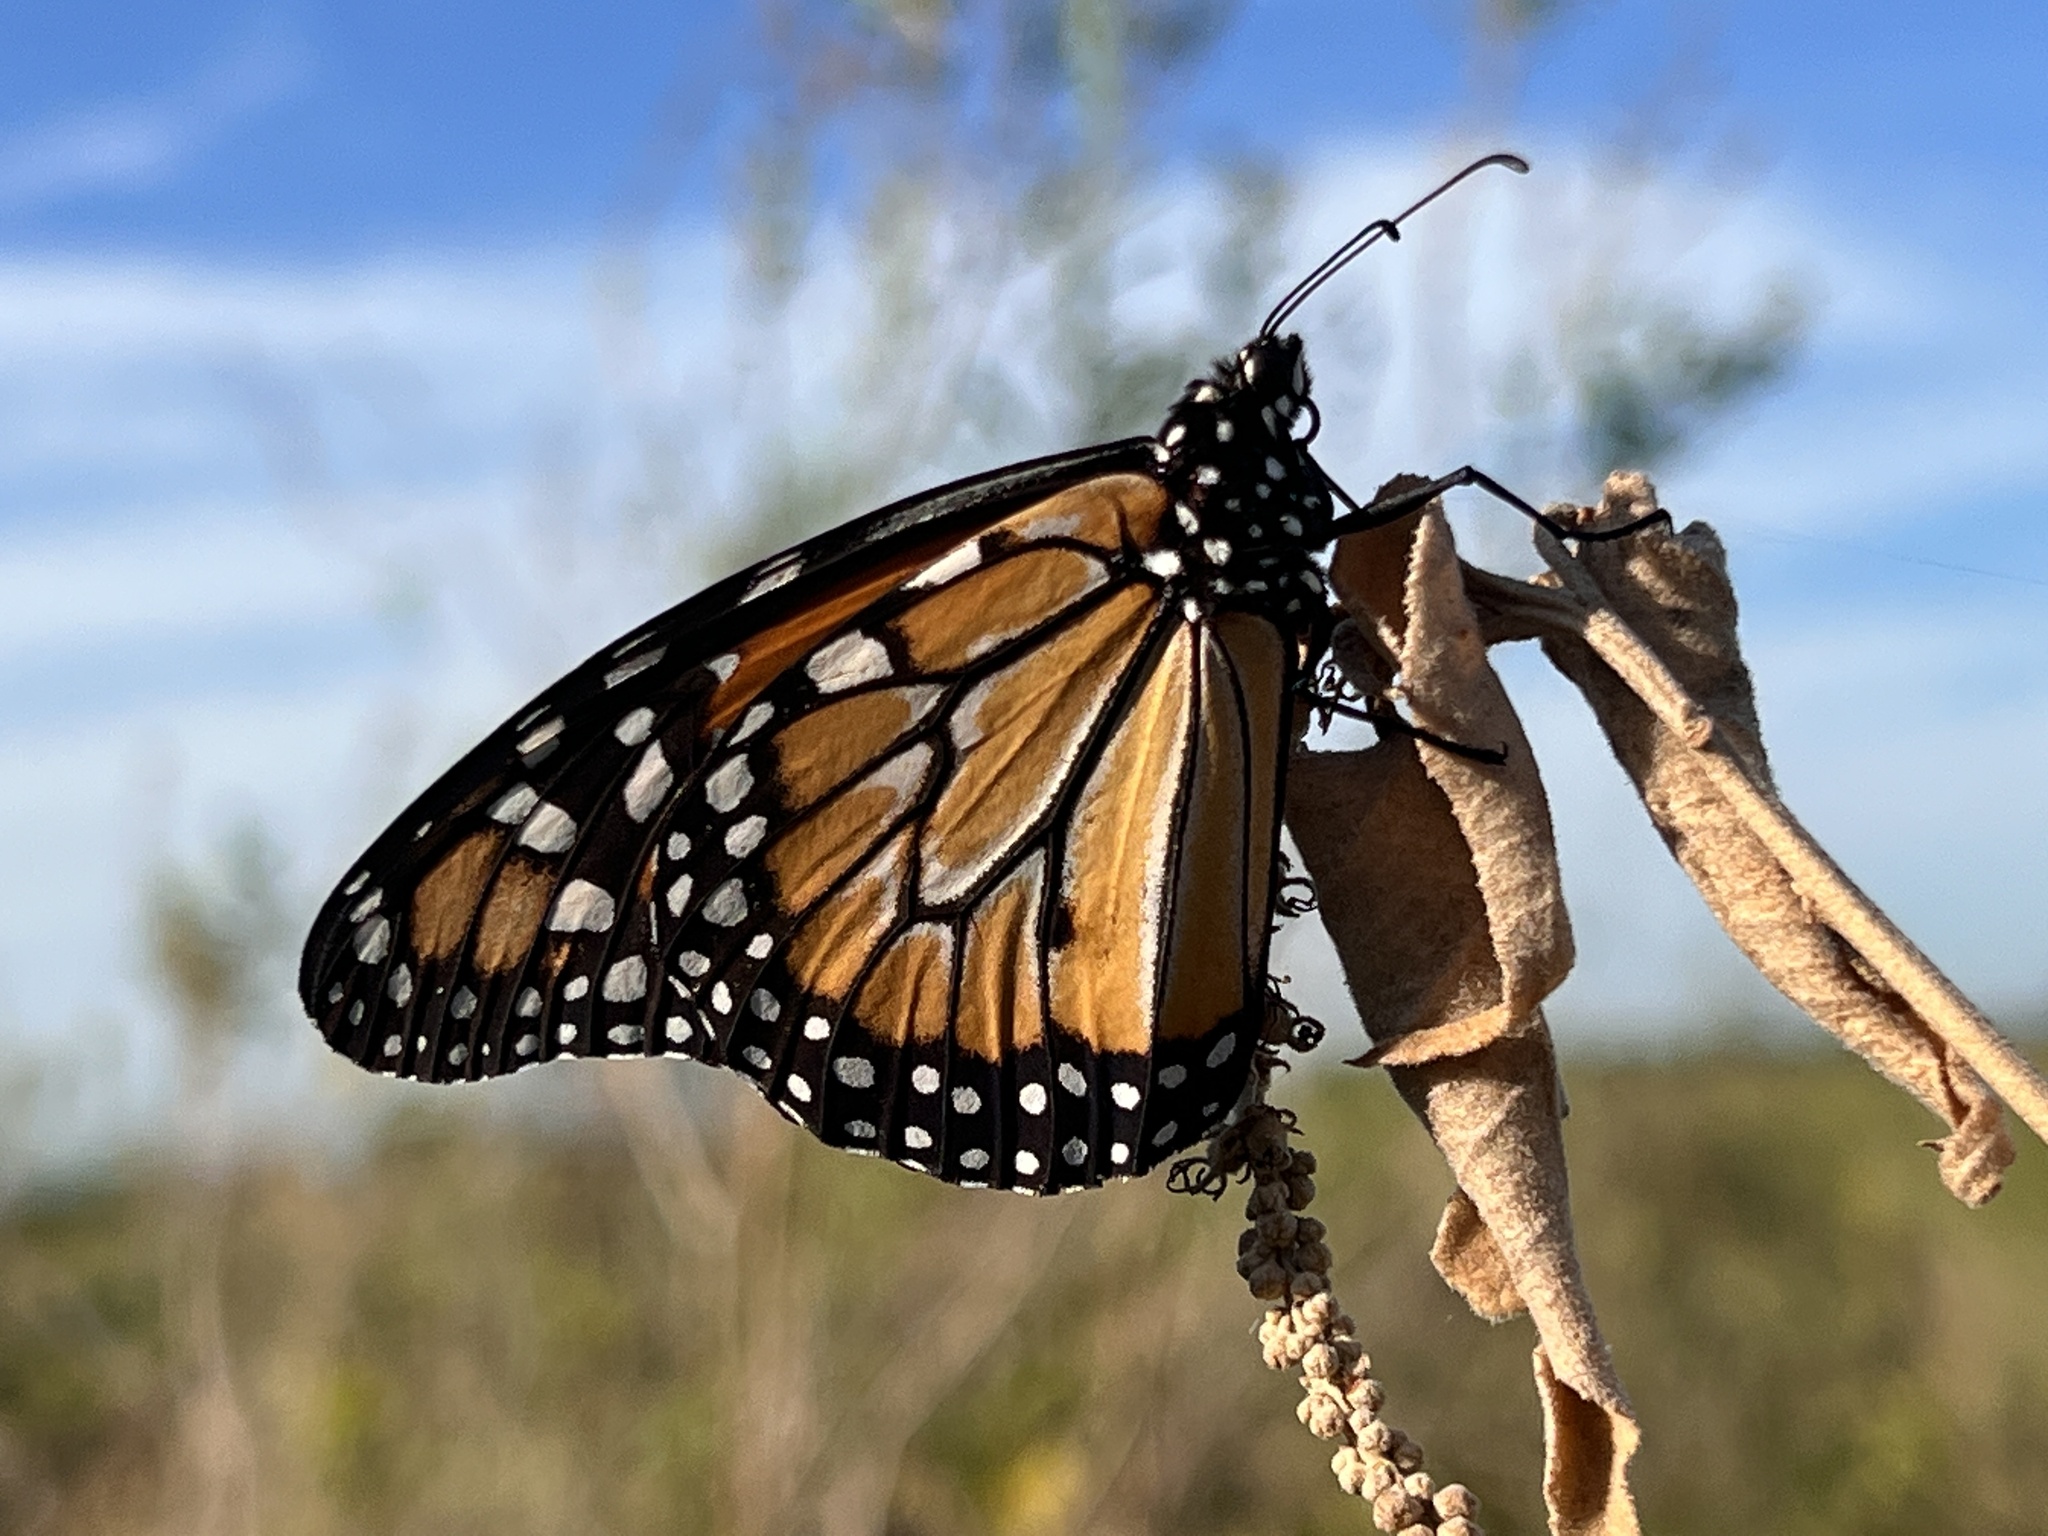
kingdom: Animalia
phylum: Arthropoda
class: Insecta
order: Lepidoptera
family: Nymphalidae
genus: Danaus
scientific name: Danaus erippus
